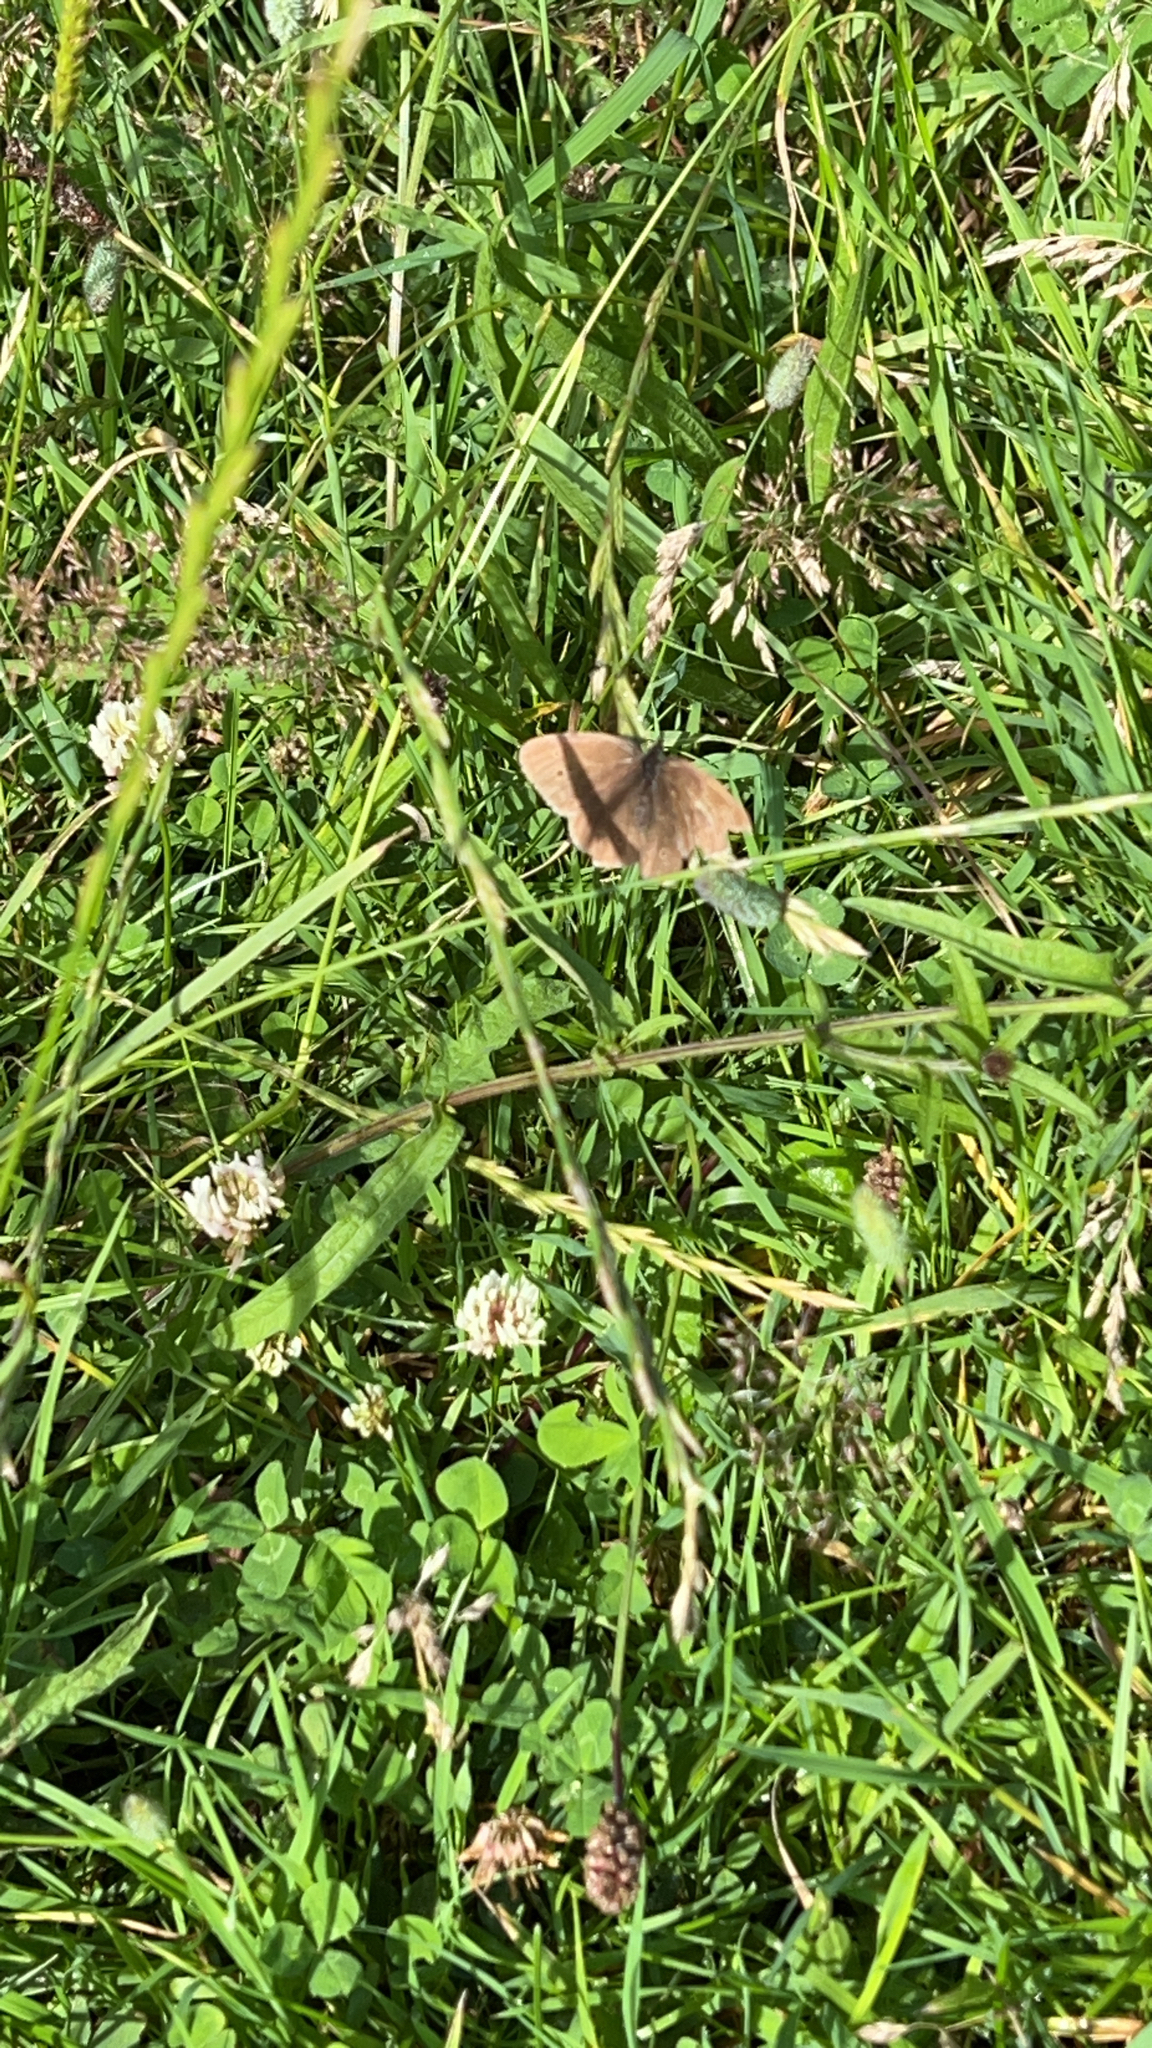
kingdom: Animalia
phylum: Arthropoda
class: Insecta
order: Lepidoptera
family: Nymphalidae
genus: Aphantopus
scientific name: Aphantopus hyperantus
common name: Ringlet
